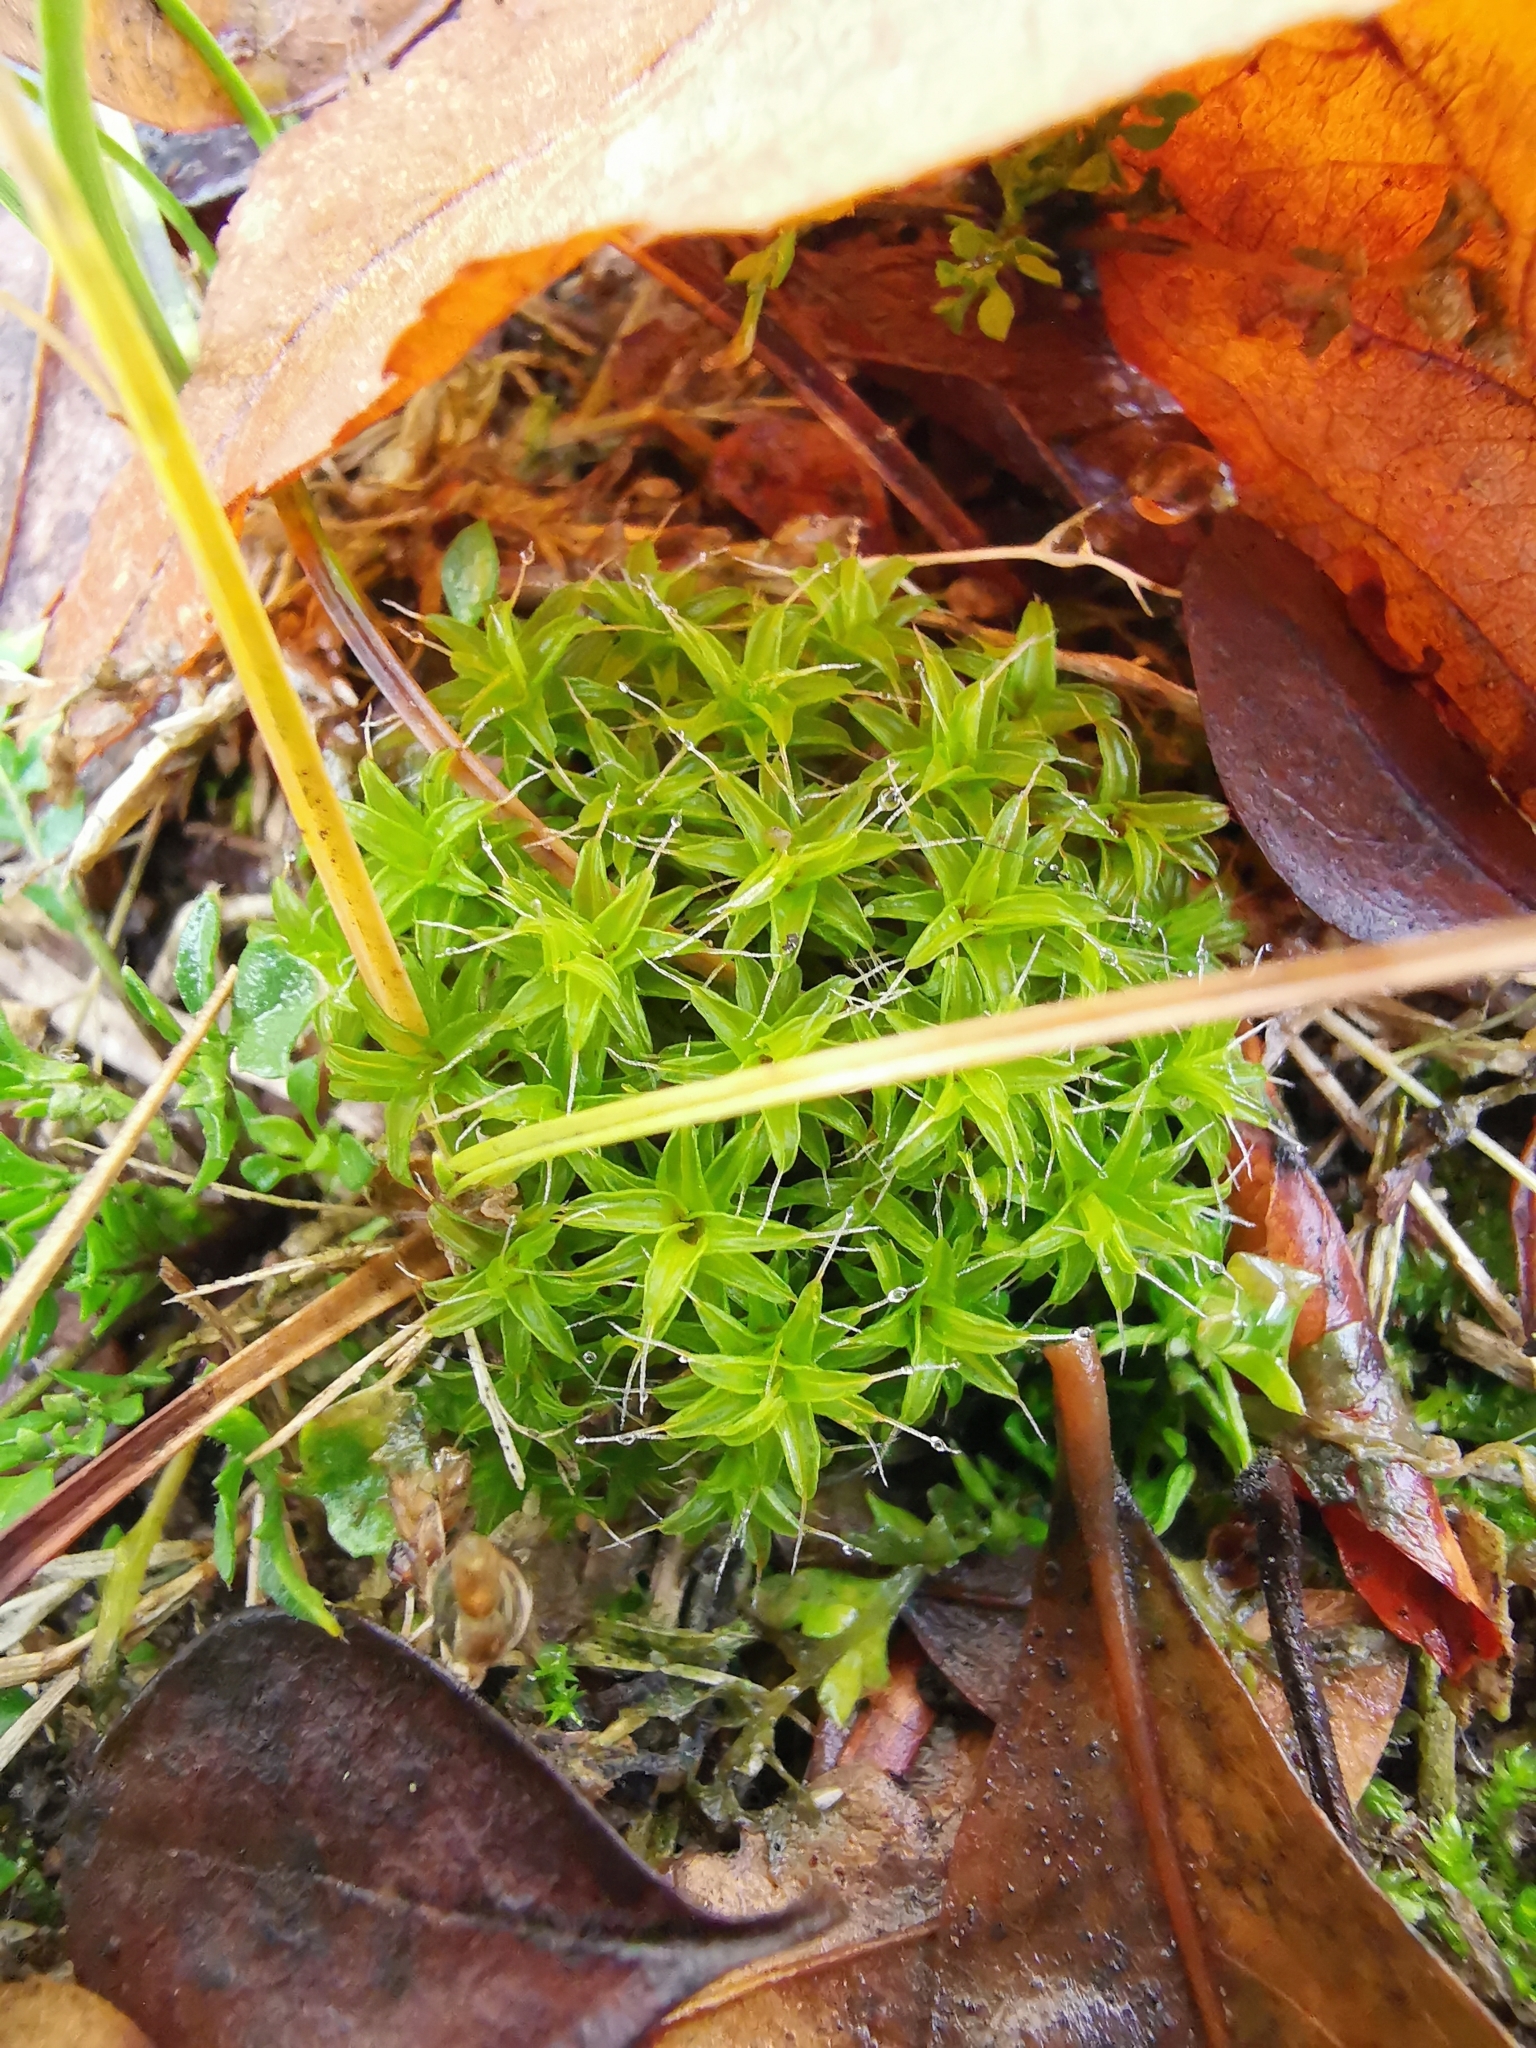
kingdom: Plantae
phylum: Bryophyta
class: Bryopsida
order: Pottiales
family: Pottiaceae
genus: Syntrichia
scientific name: Syntrichia ruralis
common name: Sidewalk screw moss
